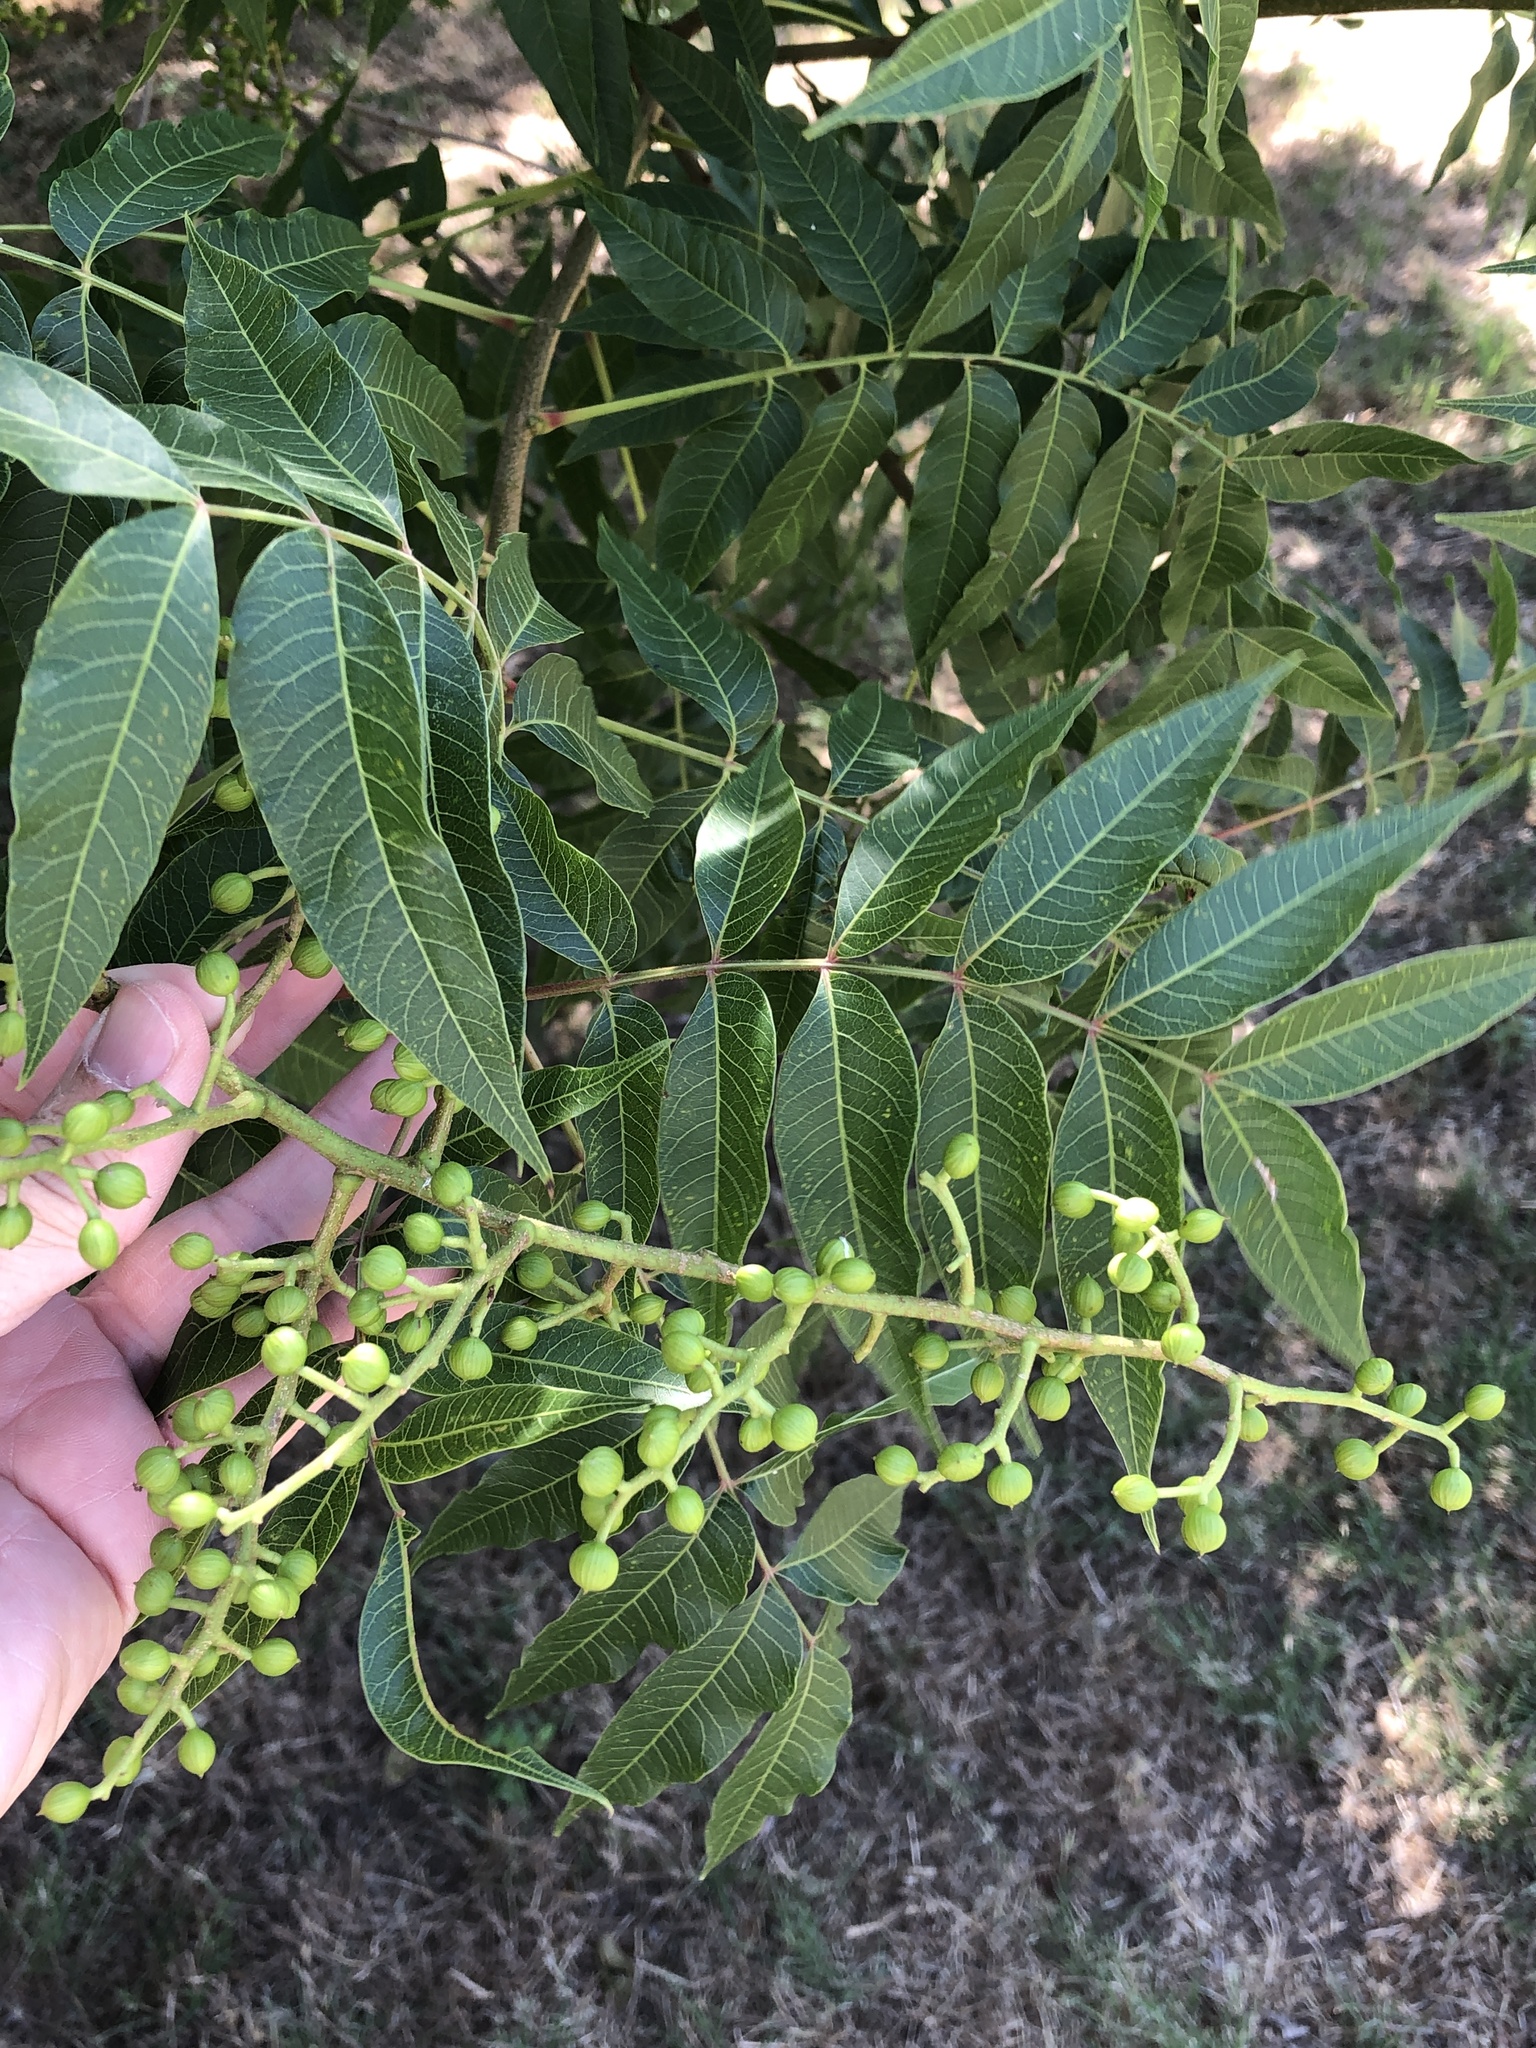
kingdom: Plantae
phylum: Tracheophyta
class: Magnoliopsida
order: Sapindales
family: Anacardiaceae
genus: Pistacia
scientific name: Pistacia chinensis
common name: Chinese pistache
